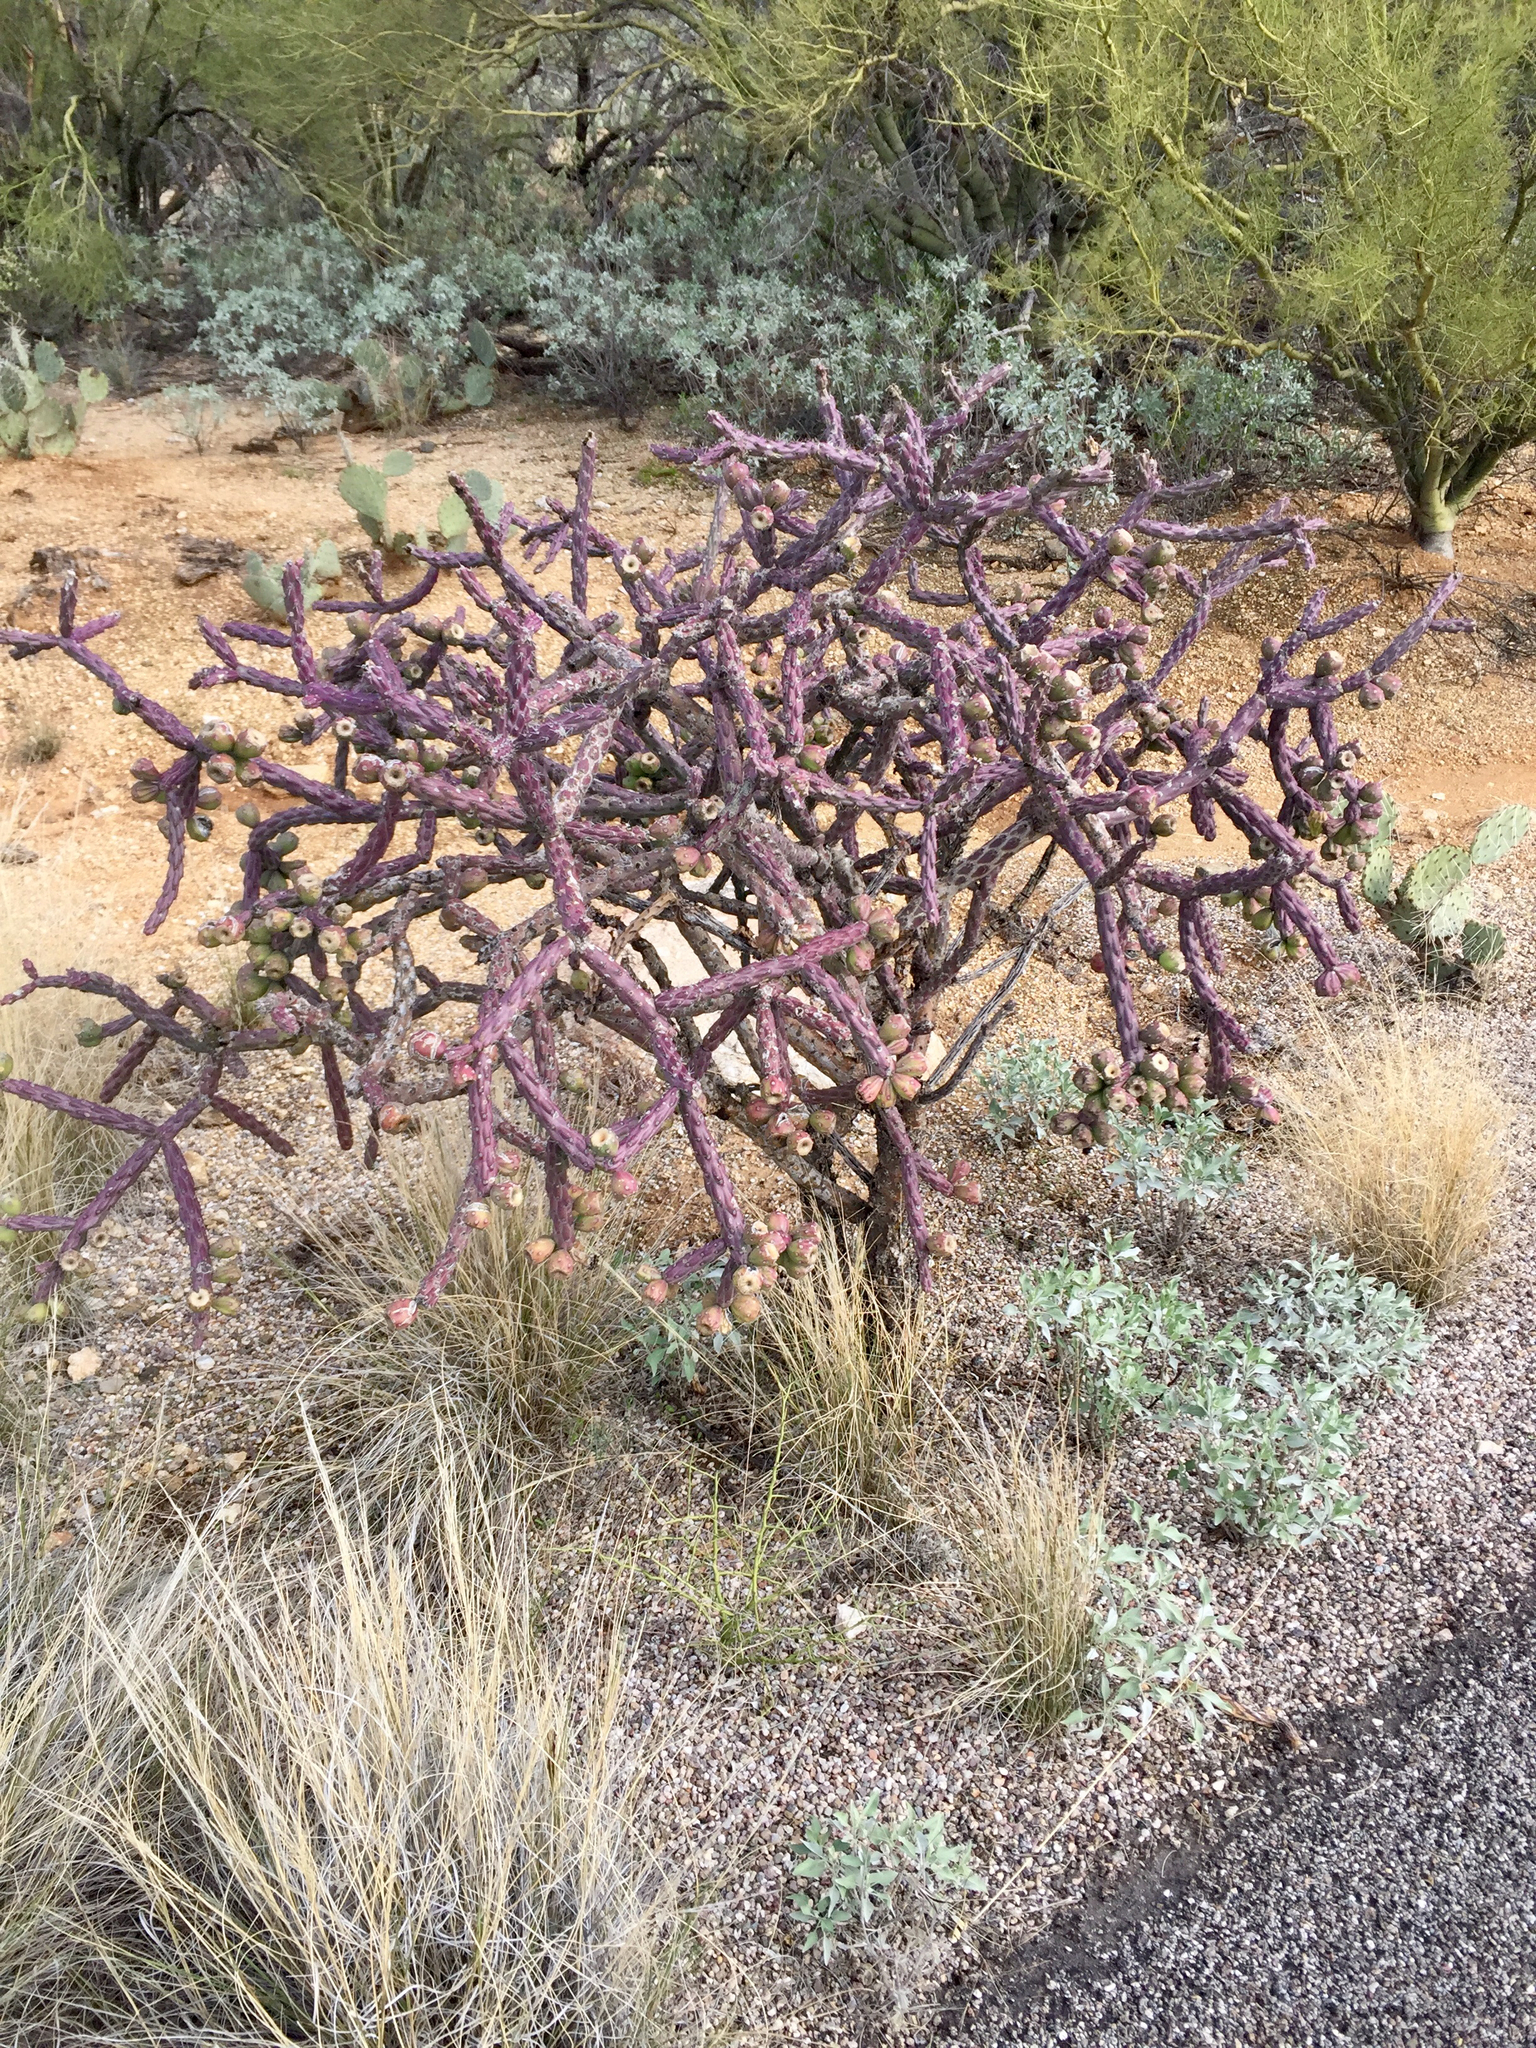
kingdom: Plantae
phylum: Tracheophyta
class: Magnoliopsida
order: Caryophyllales
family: Cactaceae
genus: Cylindropuntia
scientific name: Cylindropuntia thurberi
